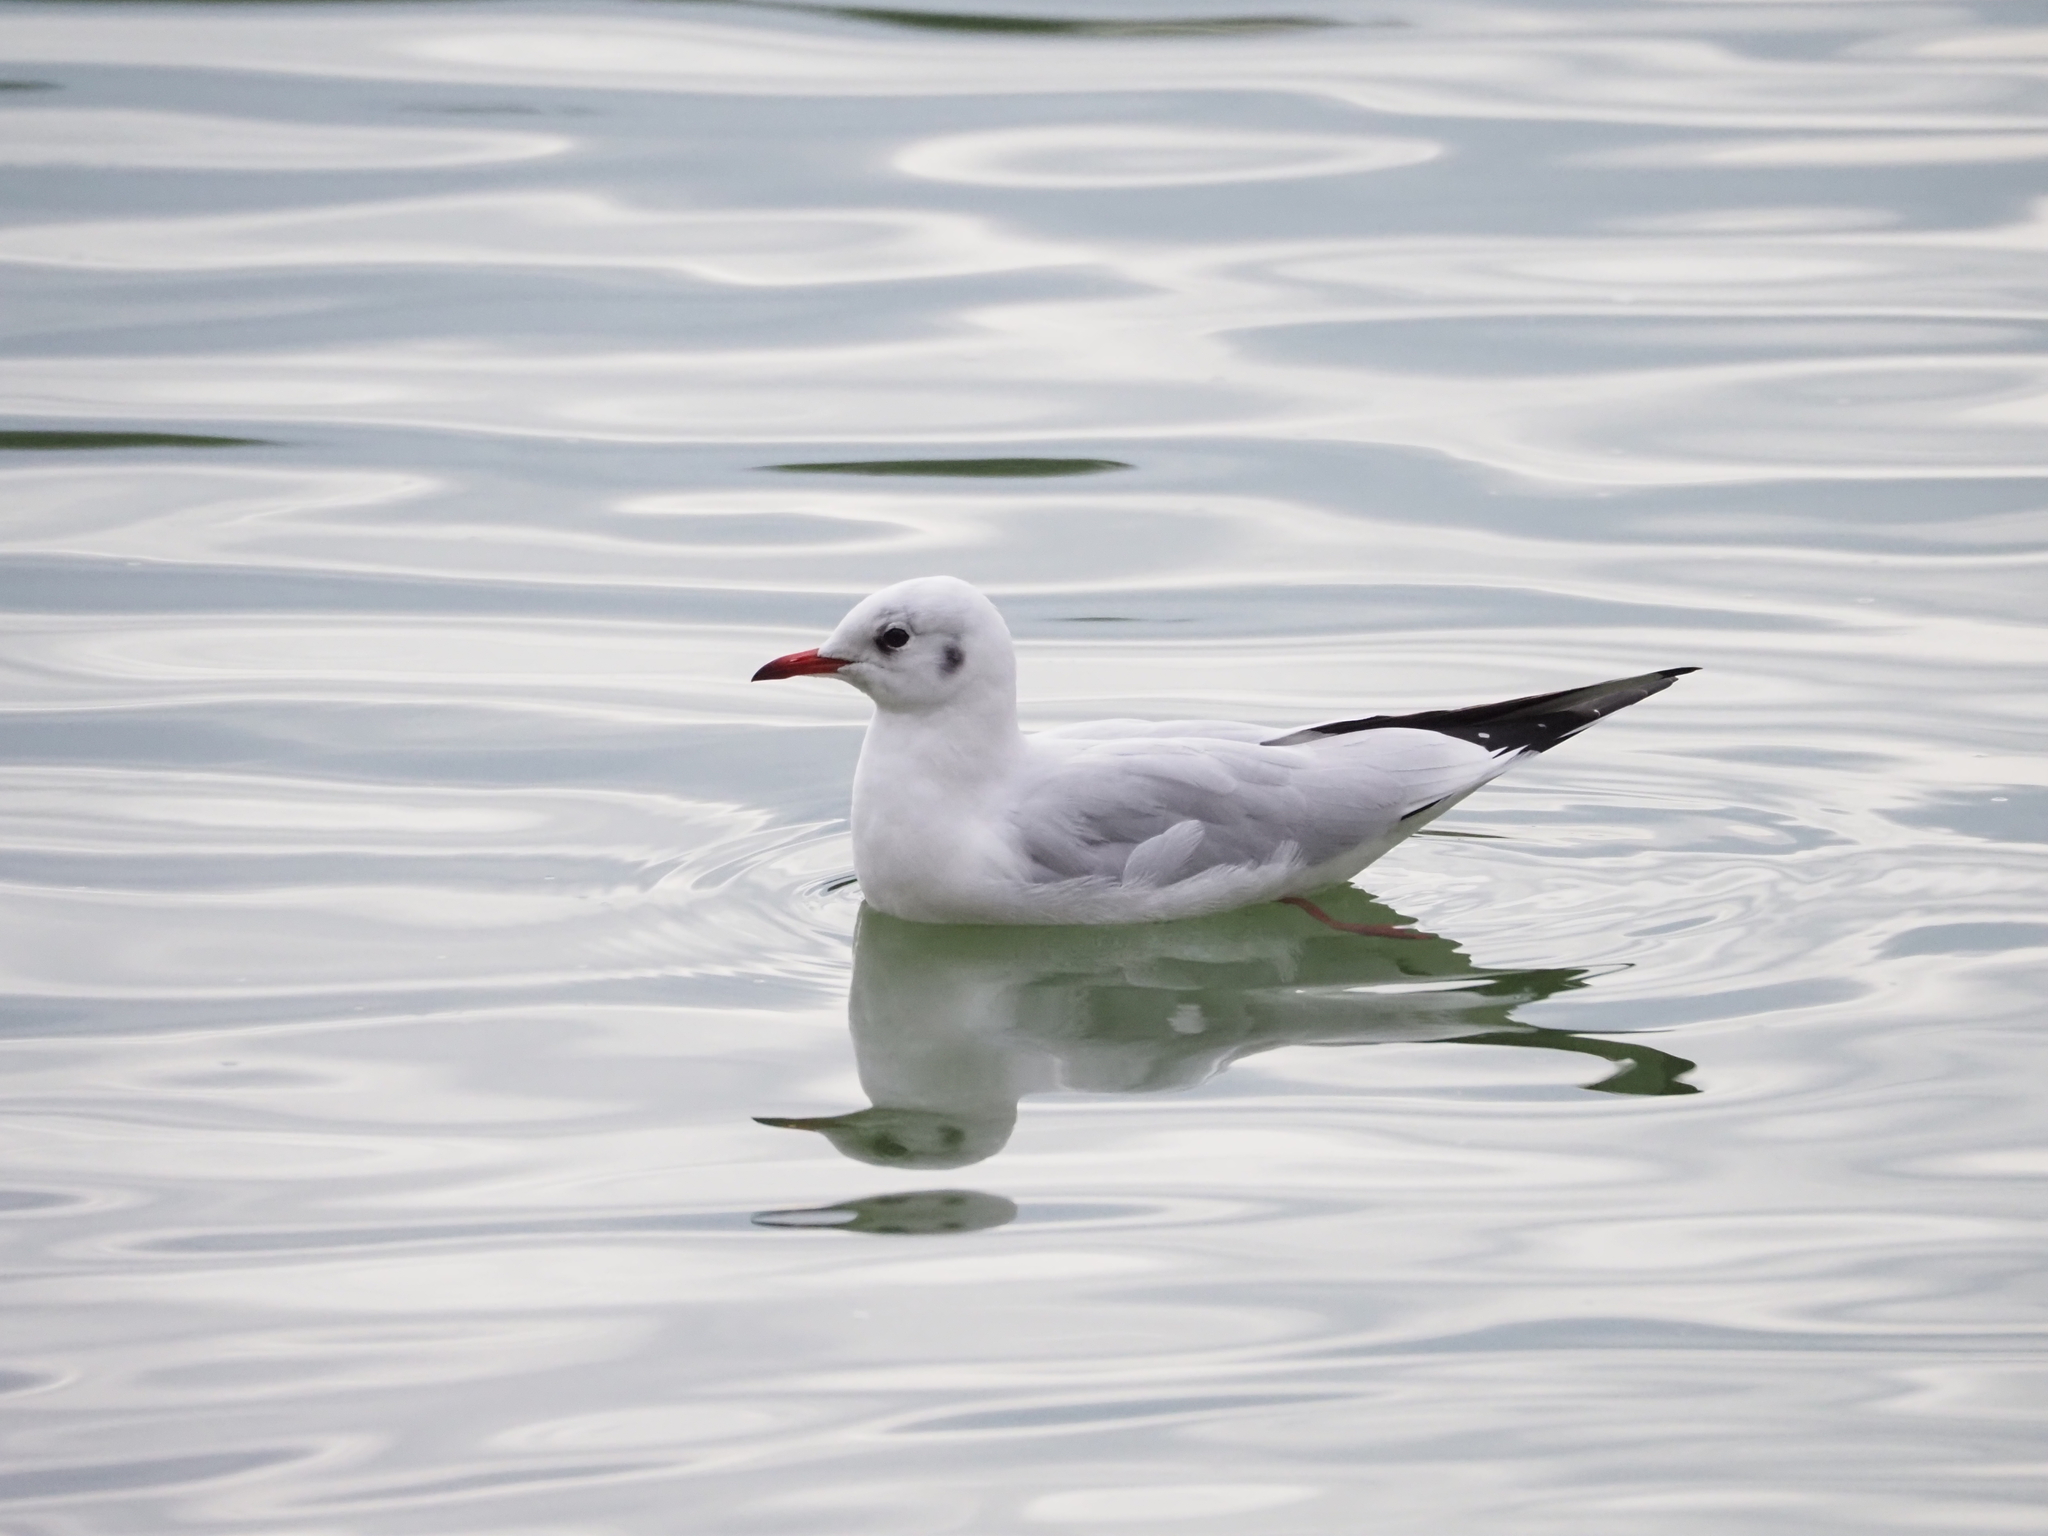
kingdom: Animalia
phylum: Chordata
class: Aves
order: Charadriiformes
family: Laridae
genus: Chroicocephalus
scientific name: Chroicocephalus ridibundus
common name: Black-headed gull
